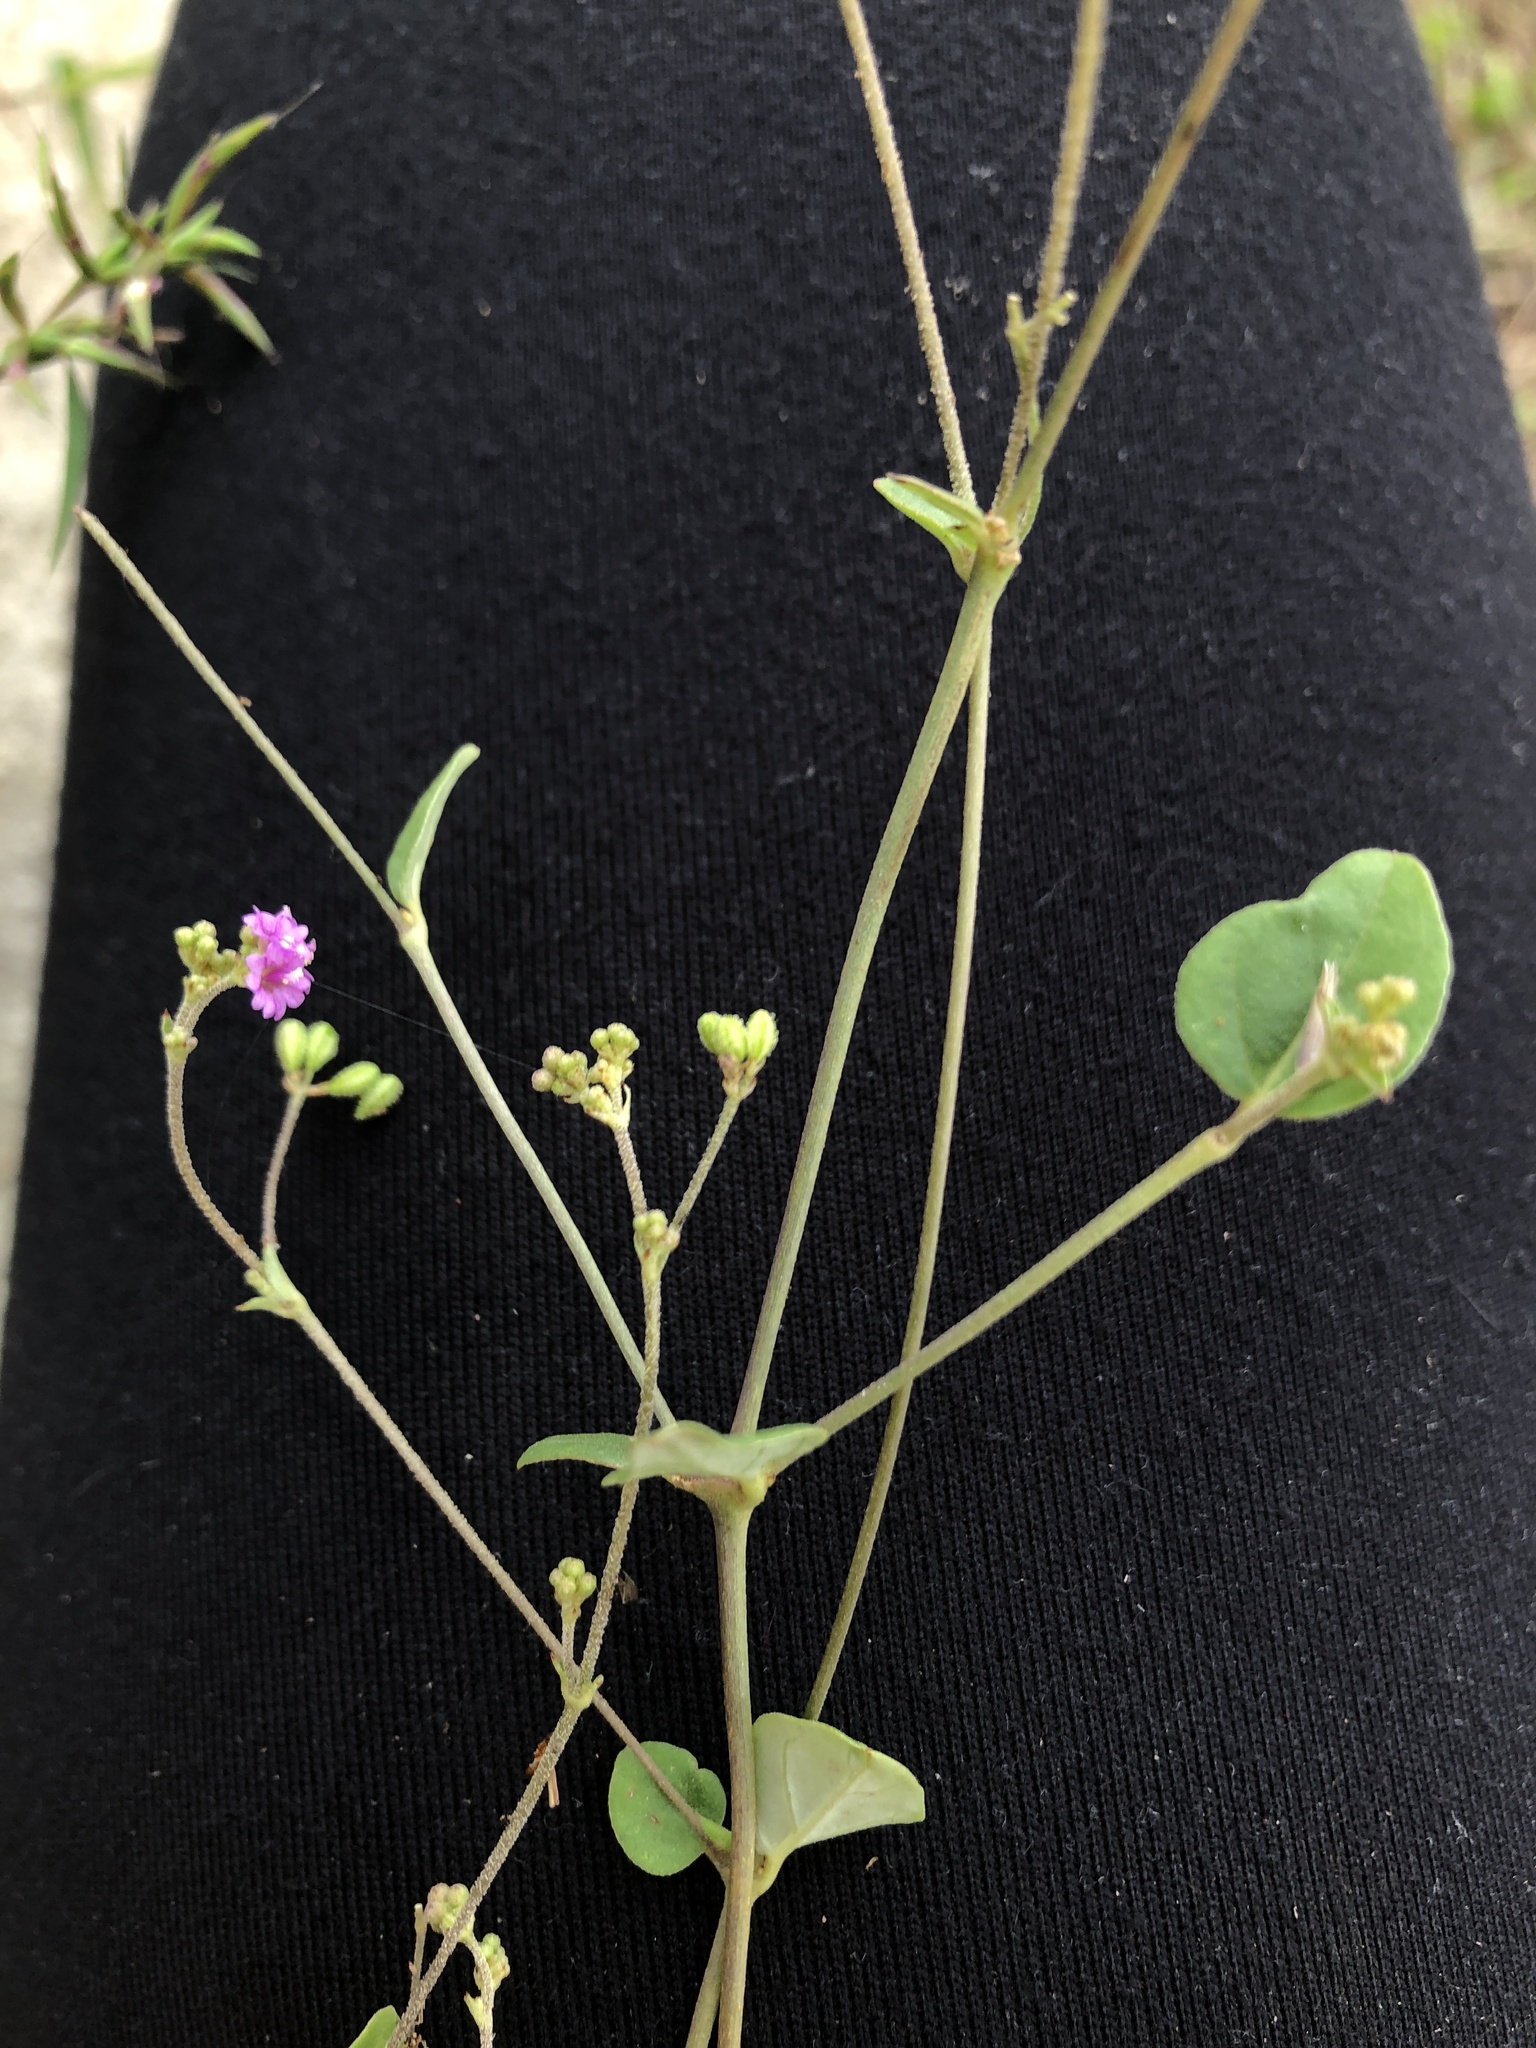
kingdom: Plantae
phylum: Tracheophyta
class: Magnoliopsida
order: Caryophyllales
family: Nyctaginaceae
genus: Boerhavia
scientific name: Boerhavia diffusa
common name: Red spiderling
